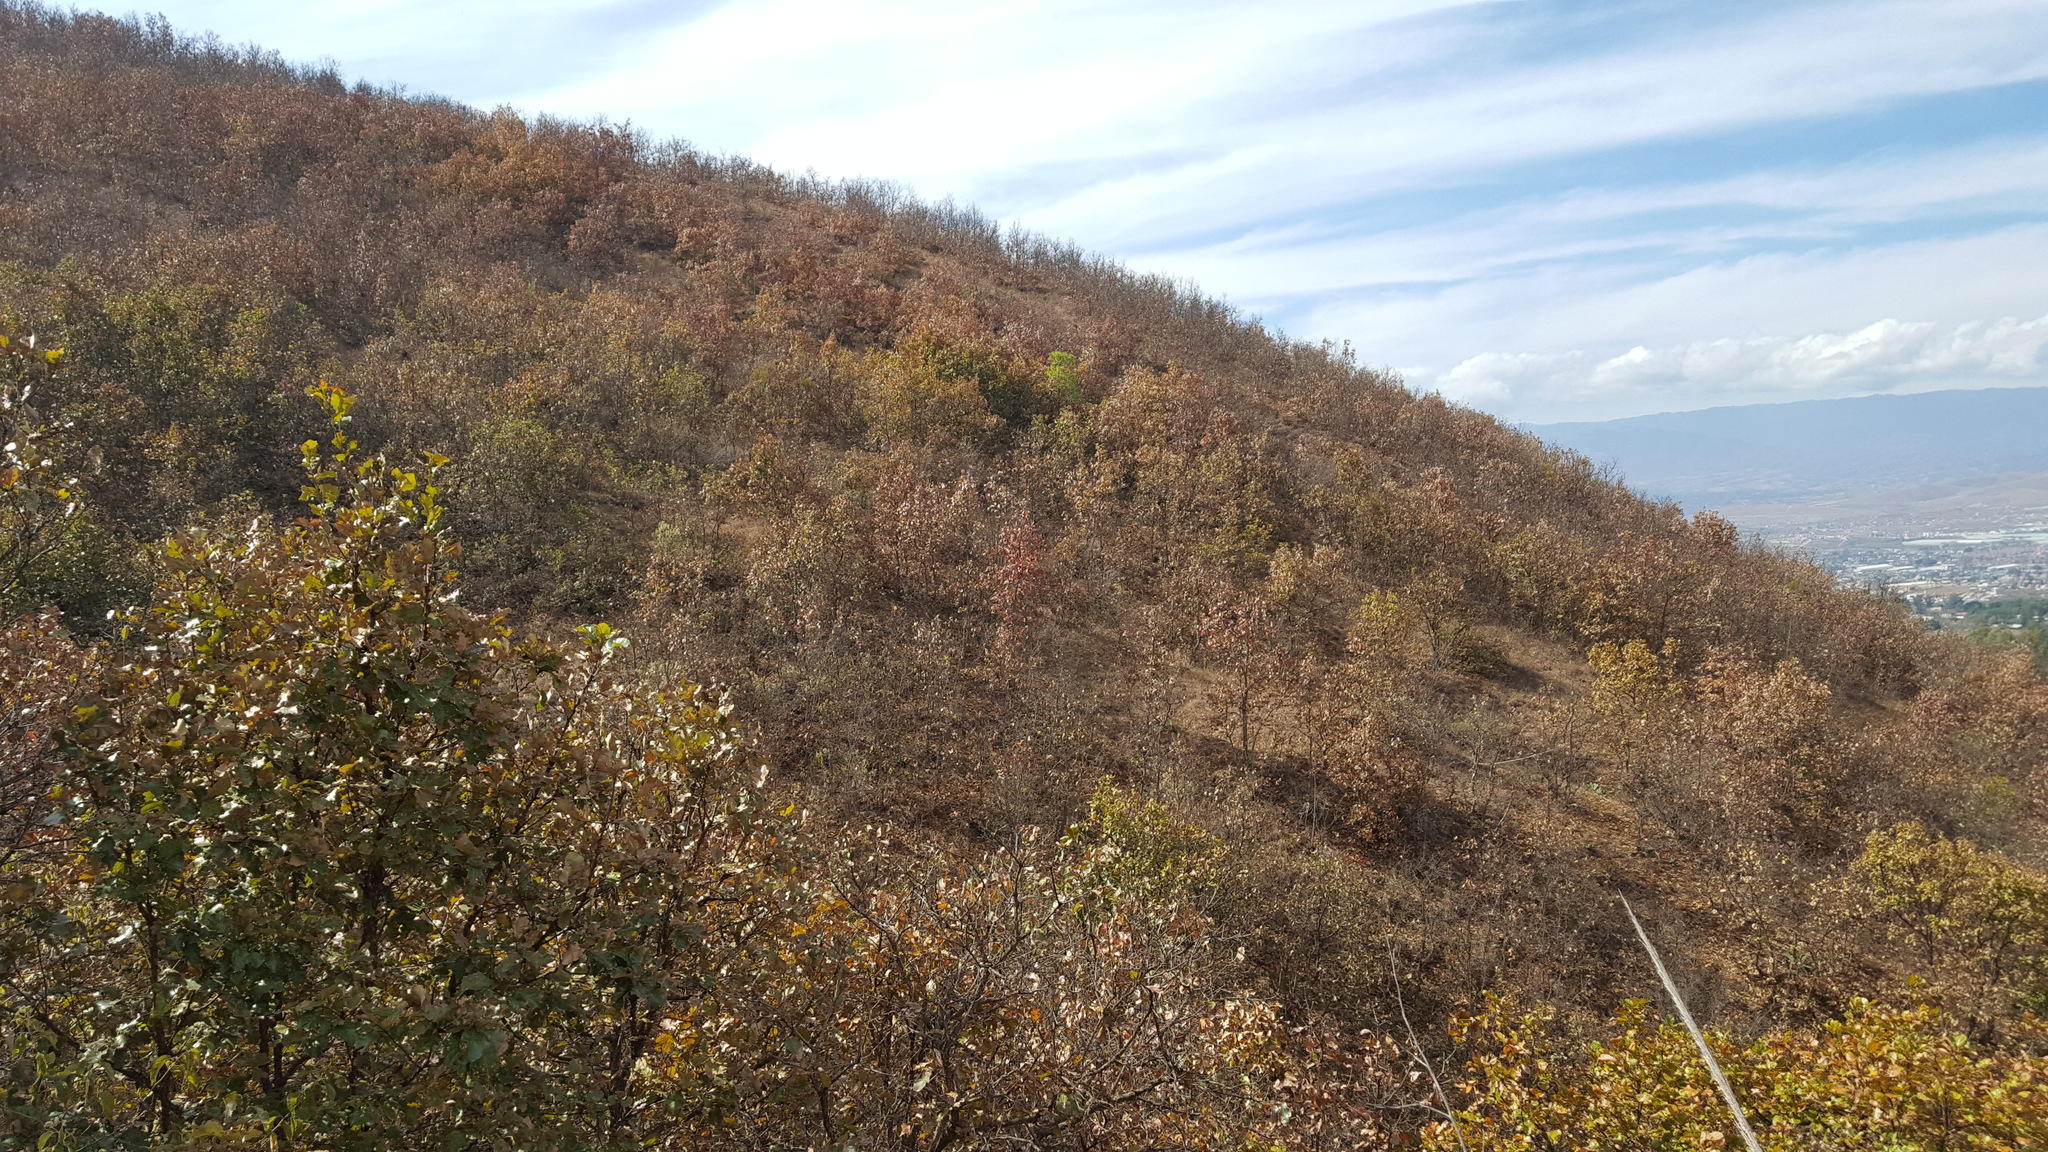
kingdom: Plantae
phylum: Tracheophyta
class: Magnoliopsida
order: Fagales
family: Fagaceae
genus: Quercus
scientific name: Quercus magnoliifolia
